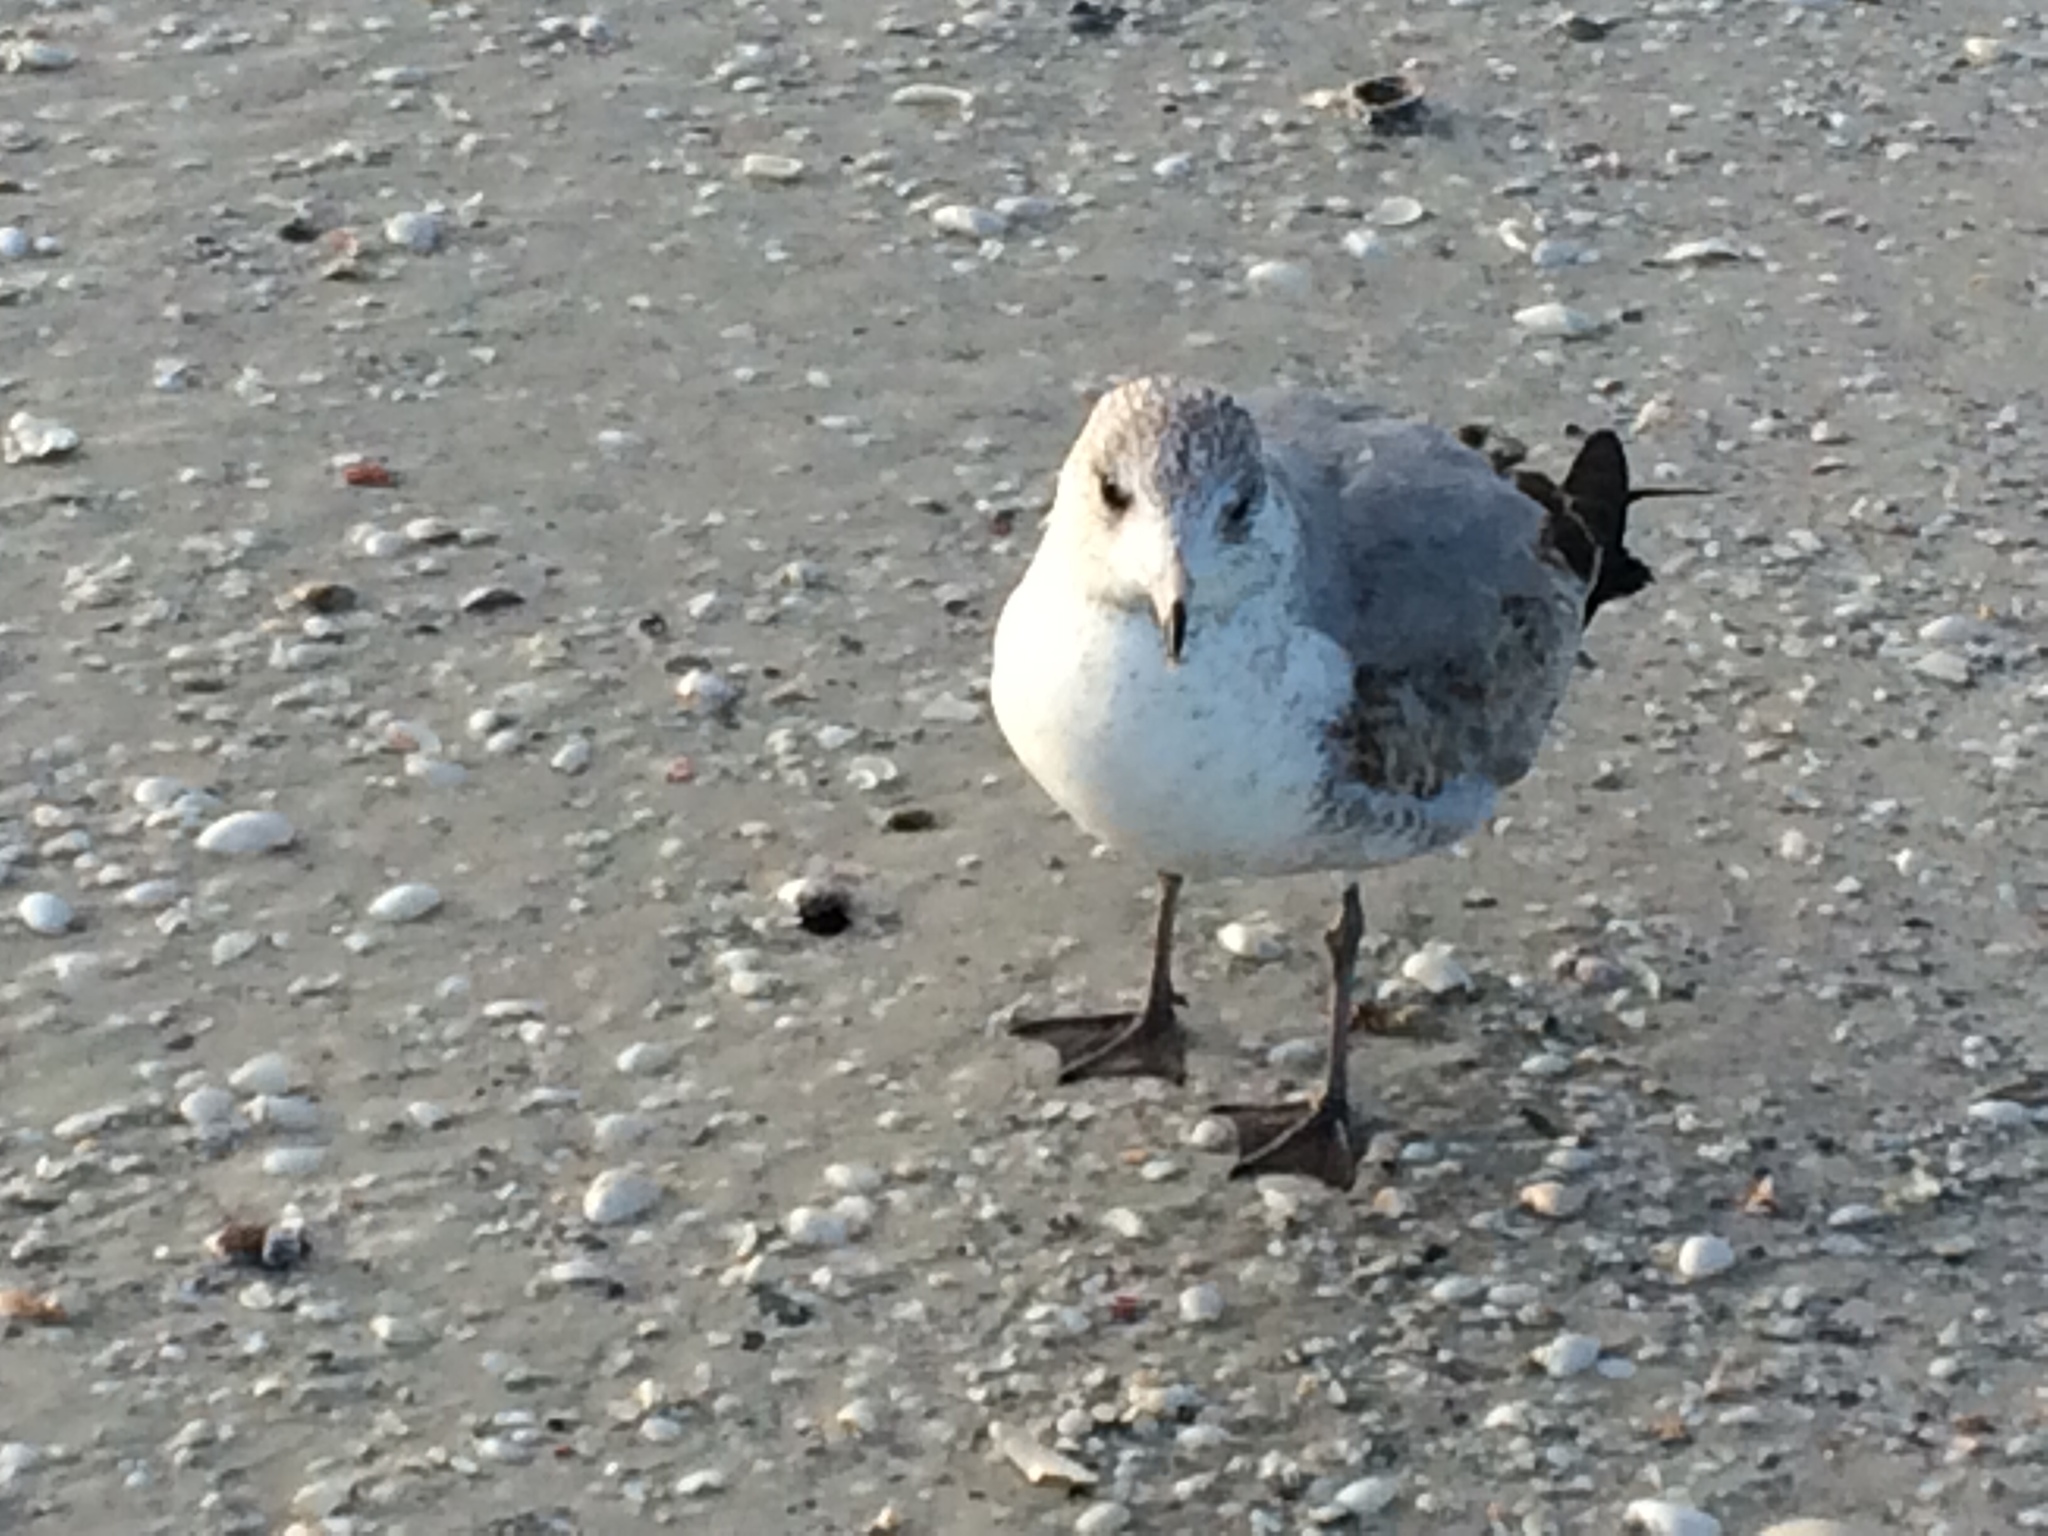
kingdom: Animalia
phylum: Chordata
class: Aves
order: Charadriiformes
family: Laridae
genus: Larus
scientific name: Larus delawarensis
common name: Ring-billed gull
